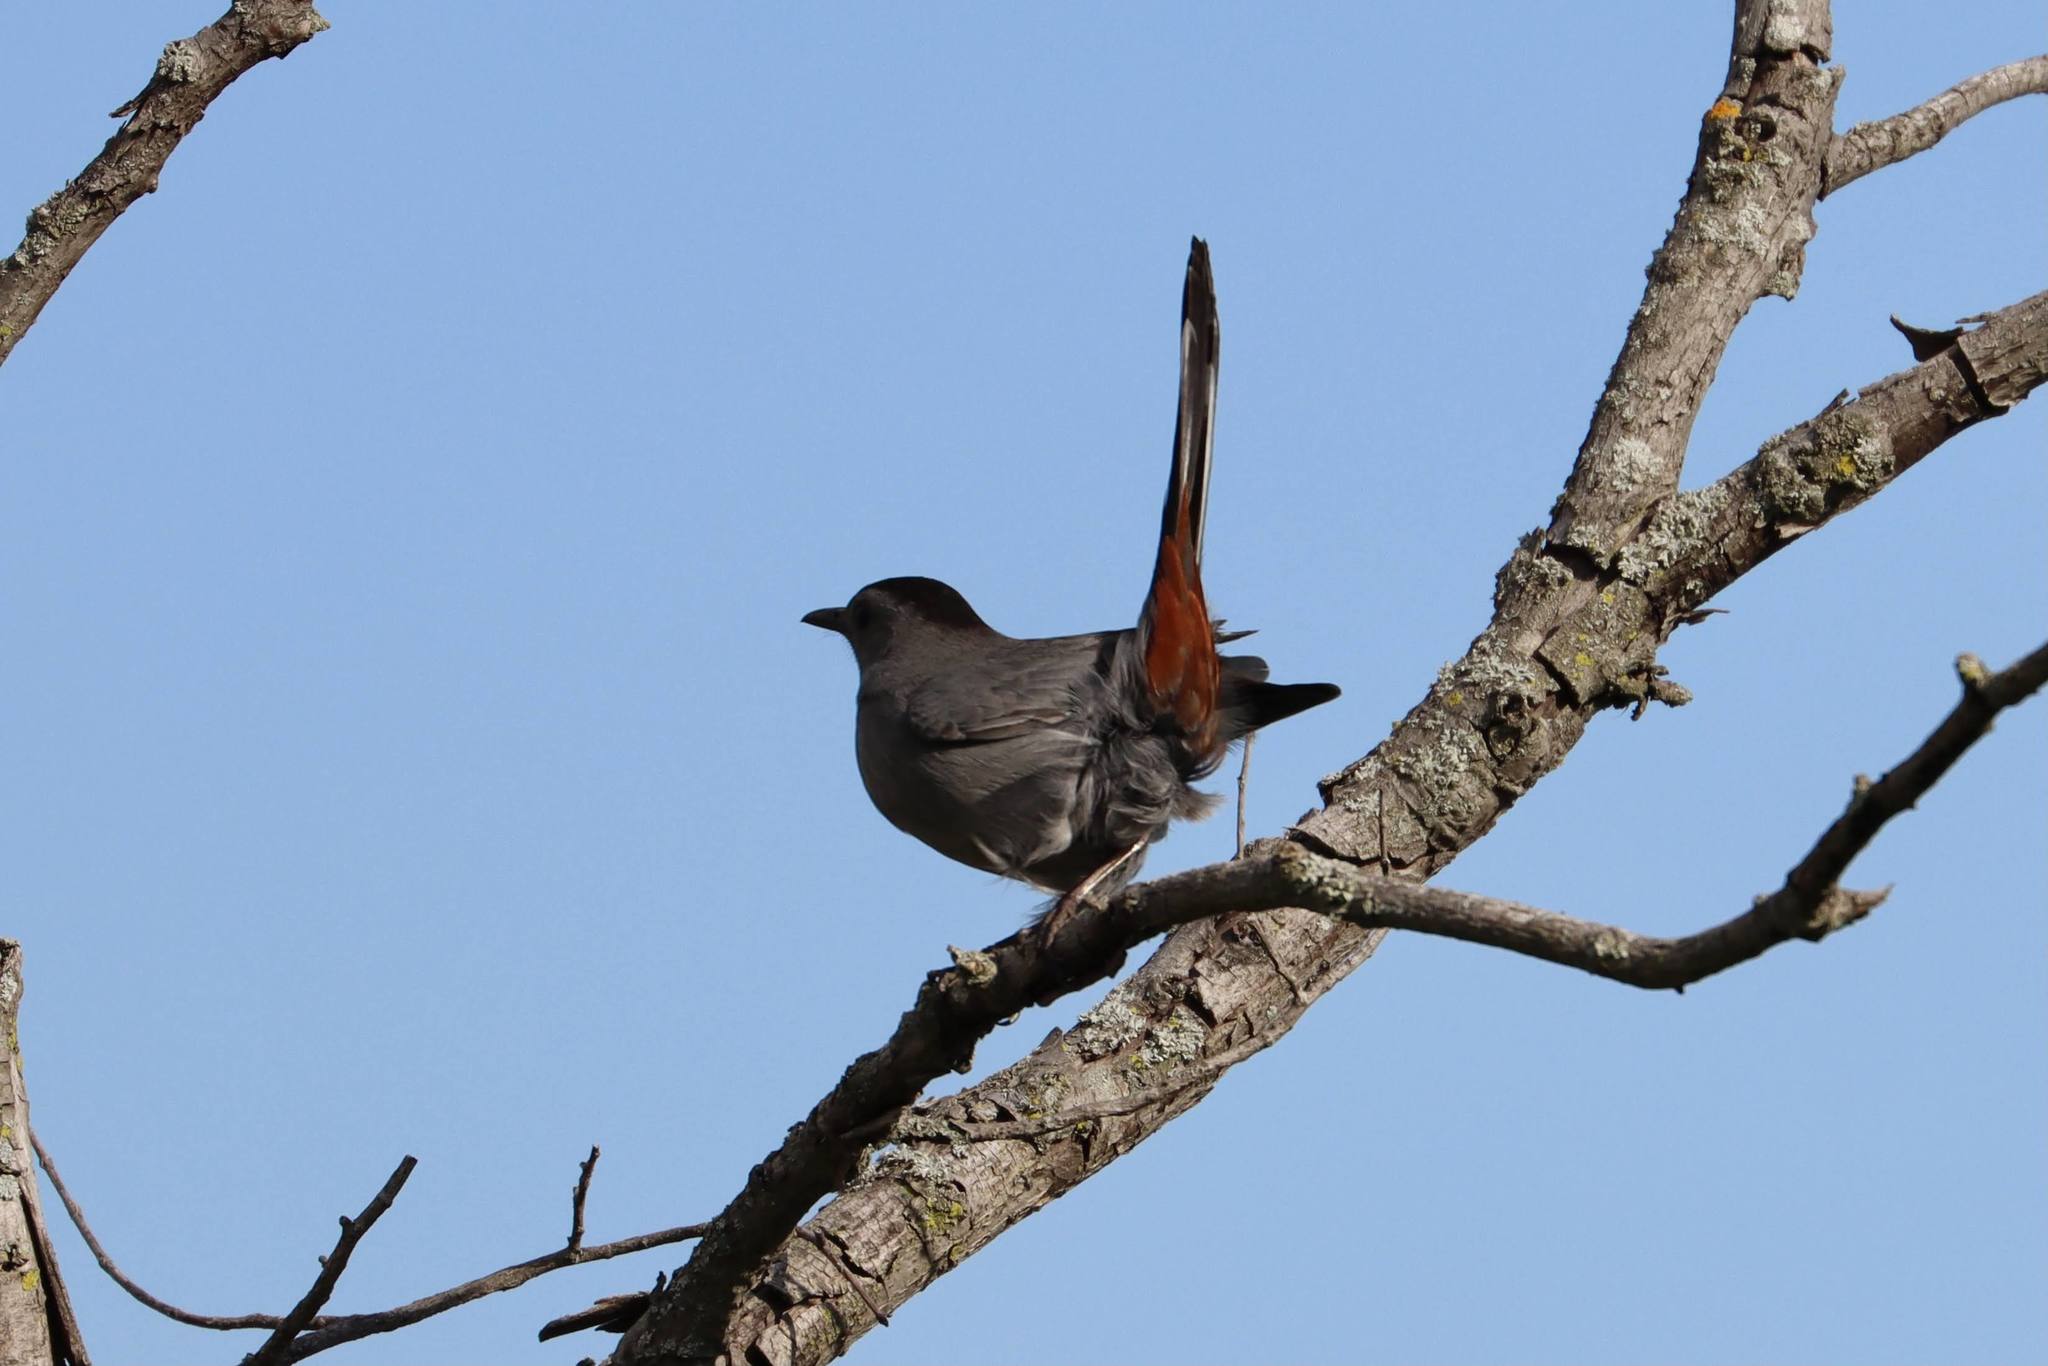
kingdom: Animalia
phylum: Chordata
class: Aves
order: Passeriformes
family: Mimidae
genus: Dumetella
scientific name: Dumetella carolinensis
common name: Gray catbird
